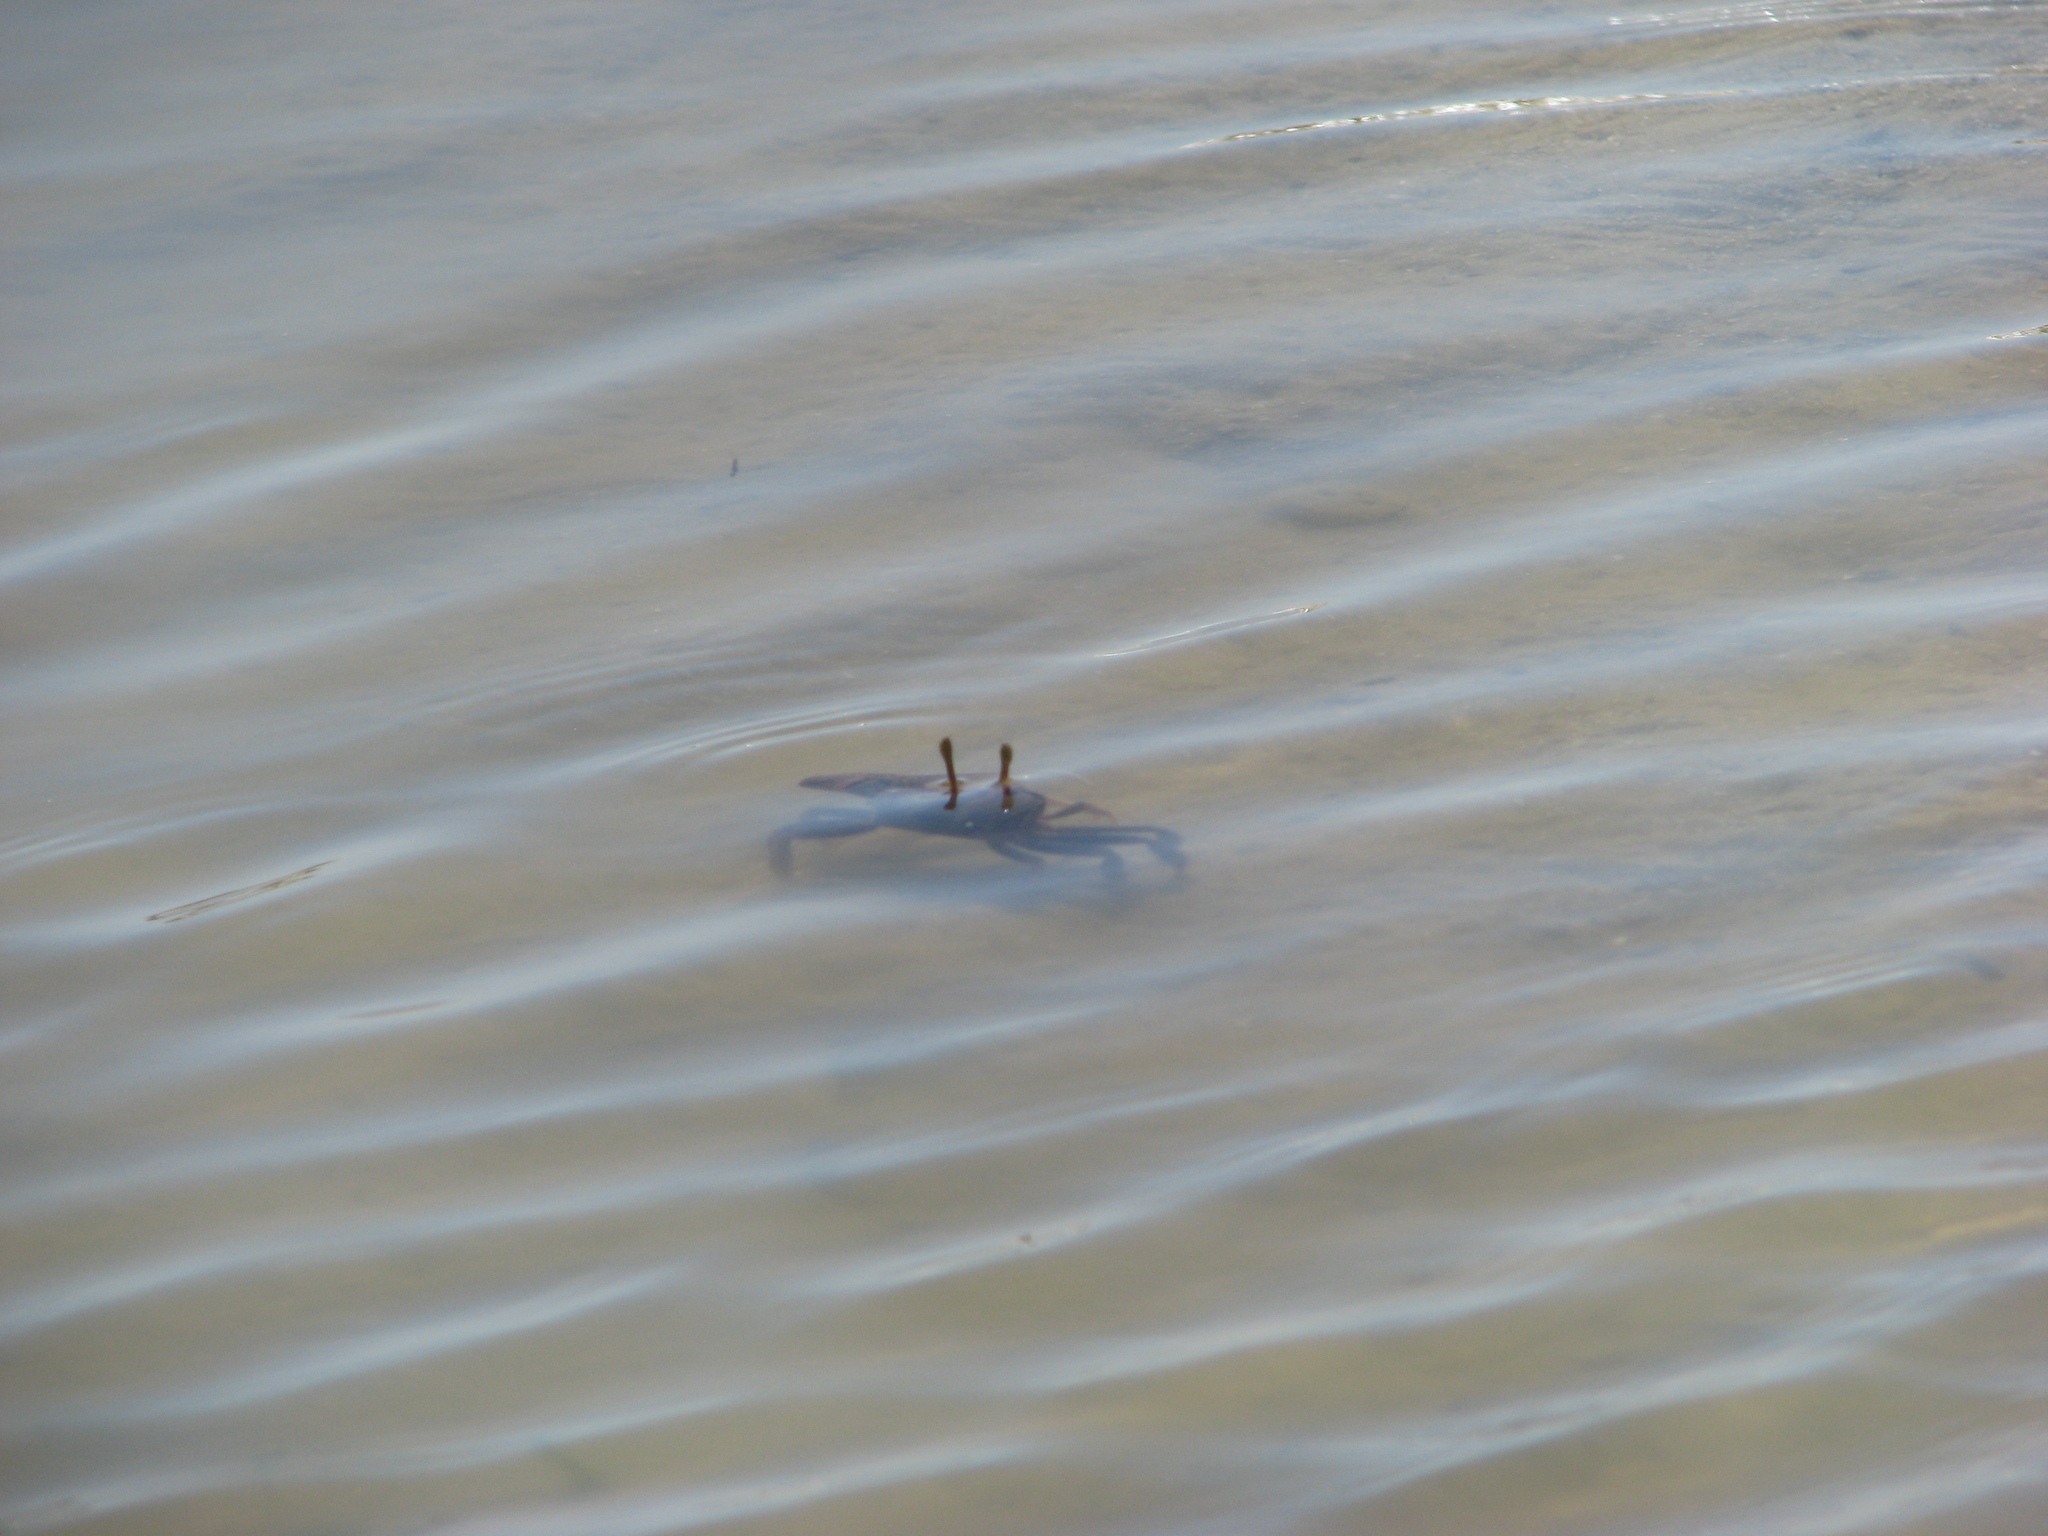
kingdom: Animalia
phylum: Arthropoda
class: Malacostraca
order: Decapoda
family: Ocypodidae
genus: Afruca
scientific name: Afruca tangeri
